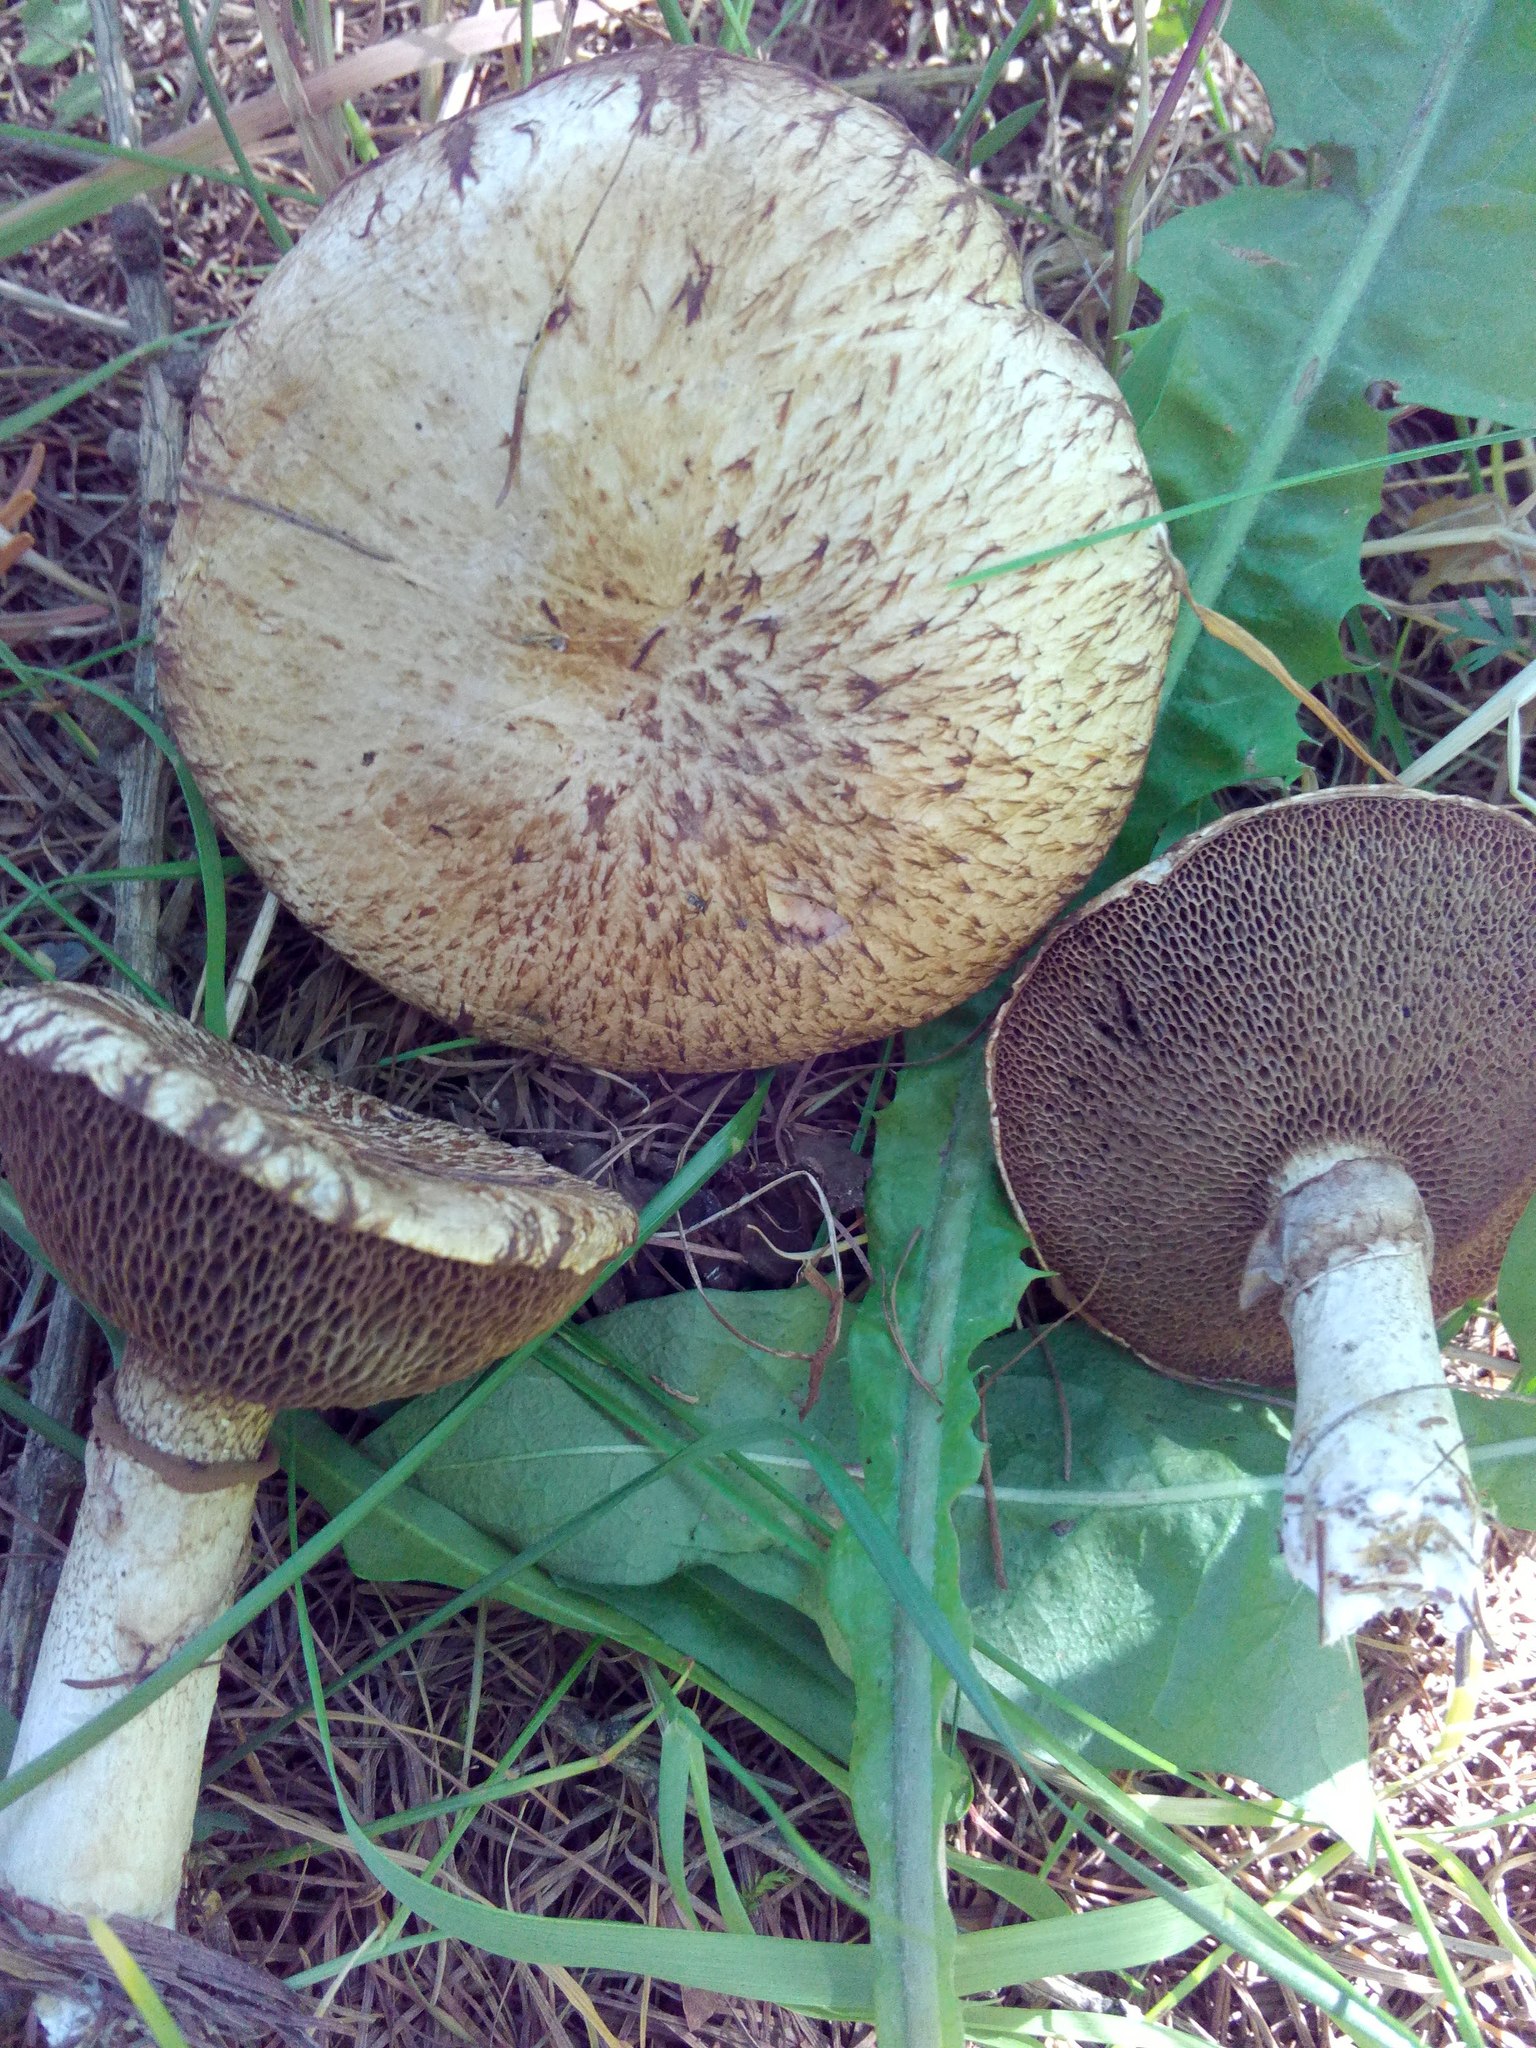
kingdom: Fungi
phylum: Basidiomycota
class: Agaricomycetes
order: Boletales
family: Suillaceae
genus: Suillus
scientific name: Suillus viscidus
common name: Sticky bolete
